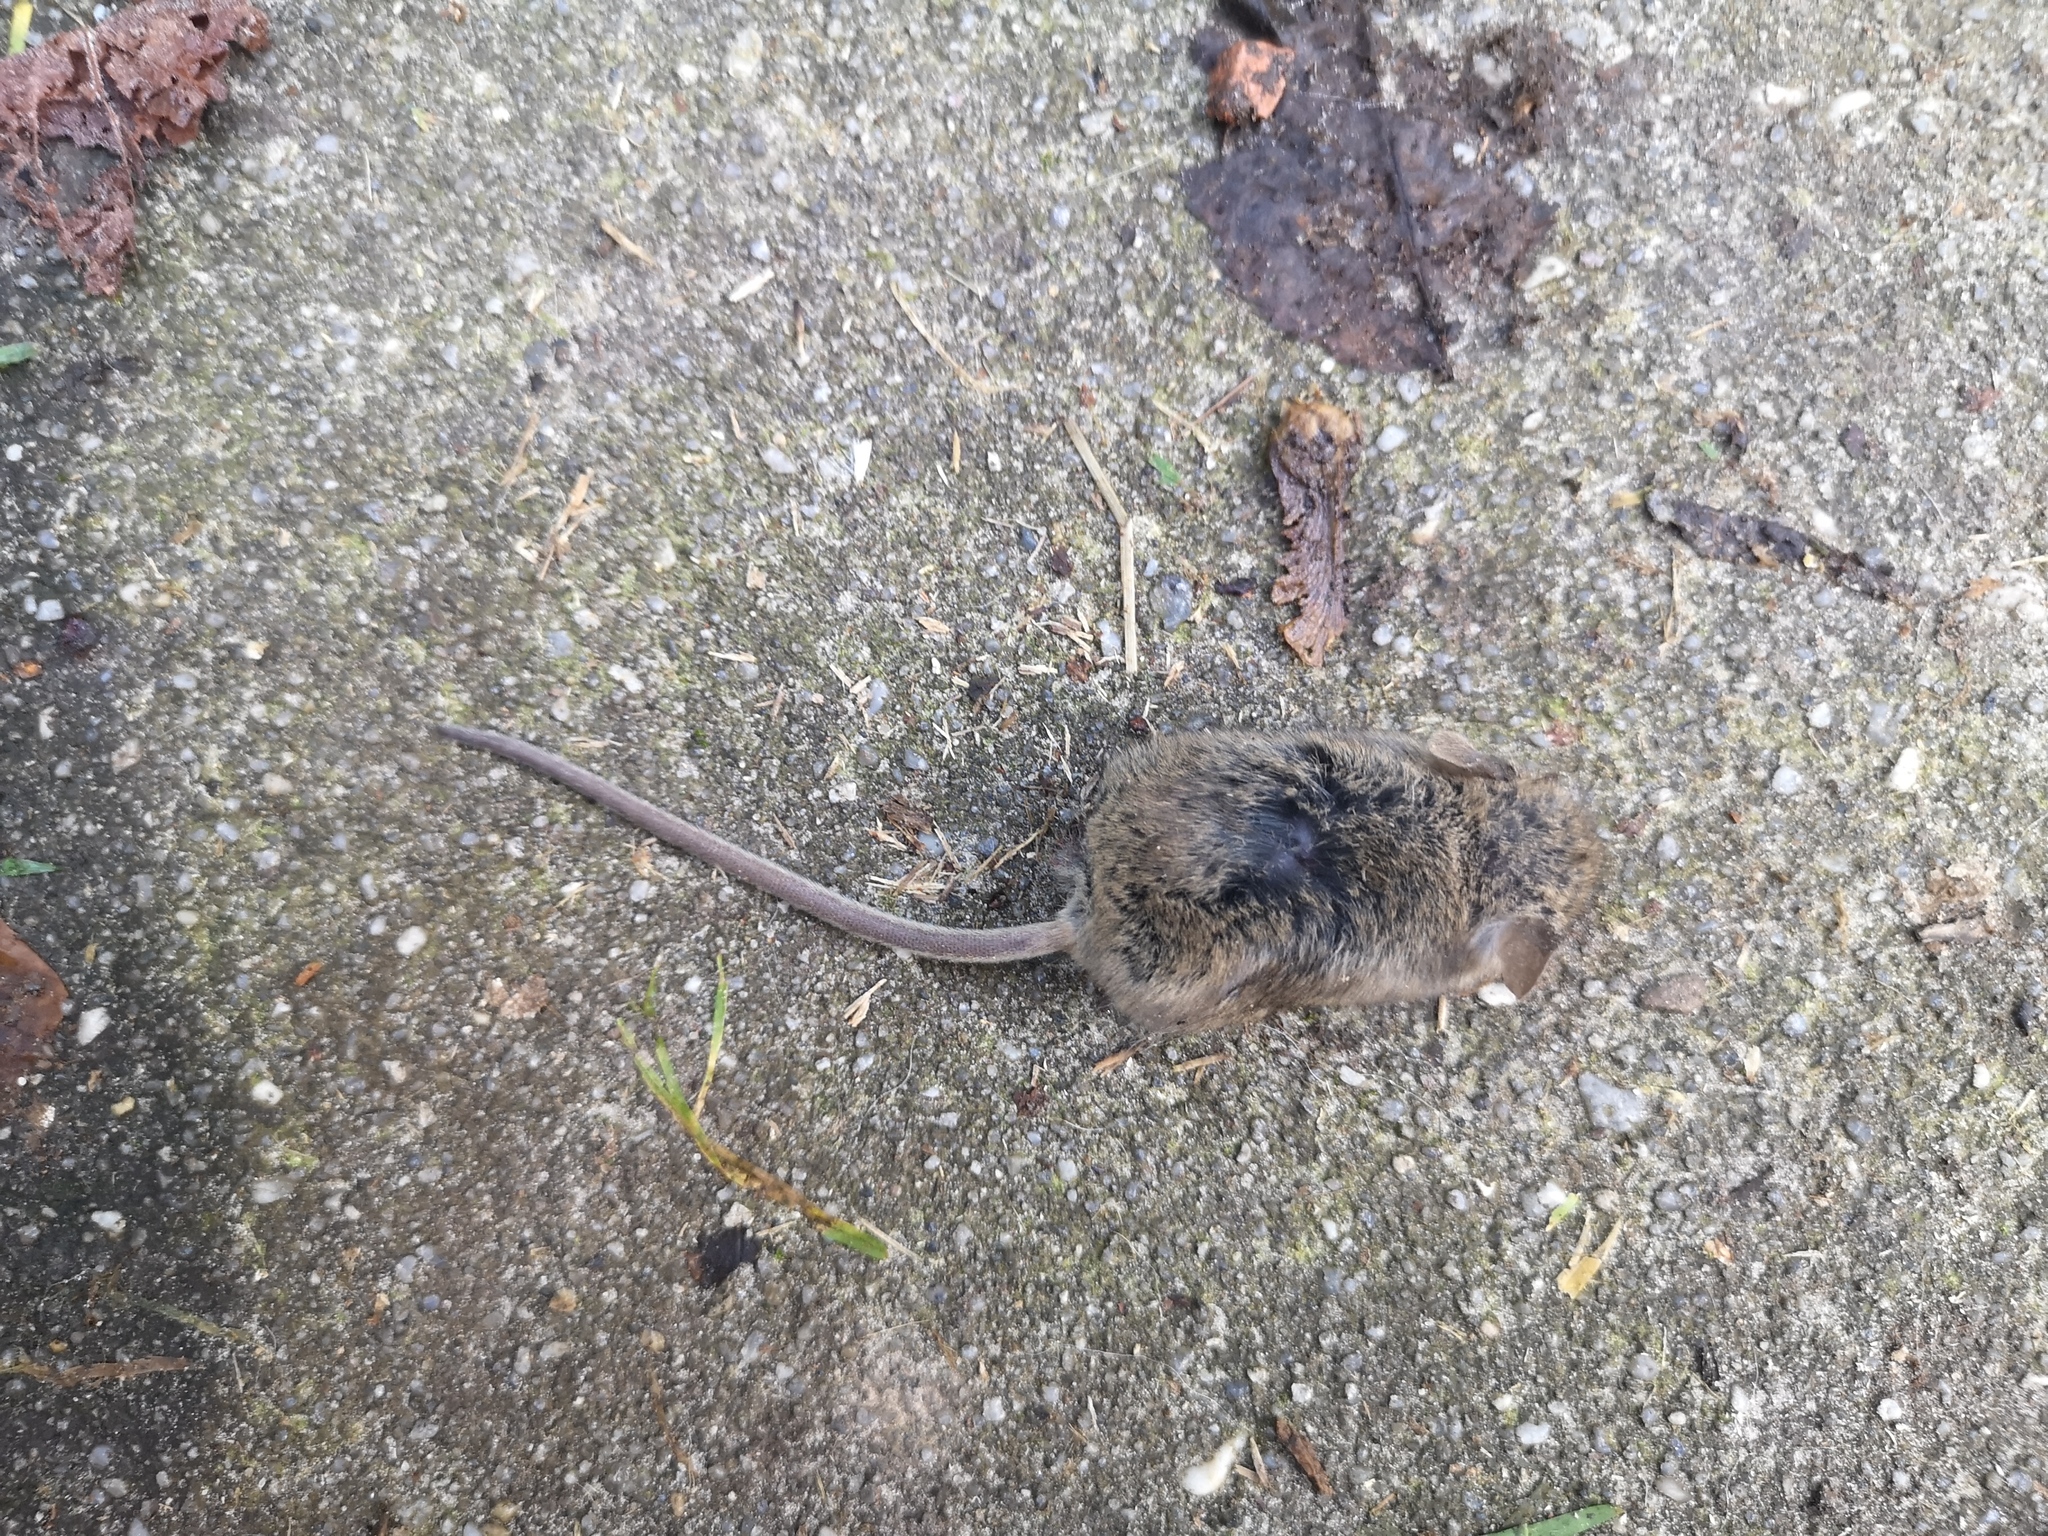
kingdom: Animalia
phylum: Chordata
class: Mammalia
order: Rodentia
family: Muridae
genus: Mus
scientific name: Mus musculus
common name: House mouse
